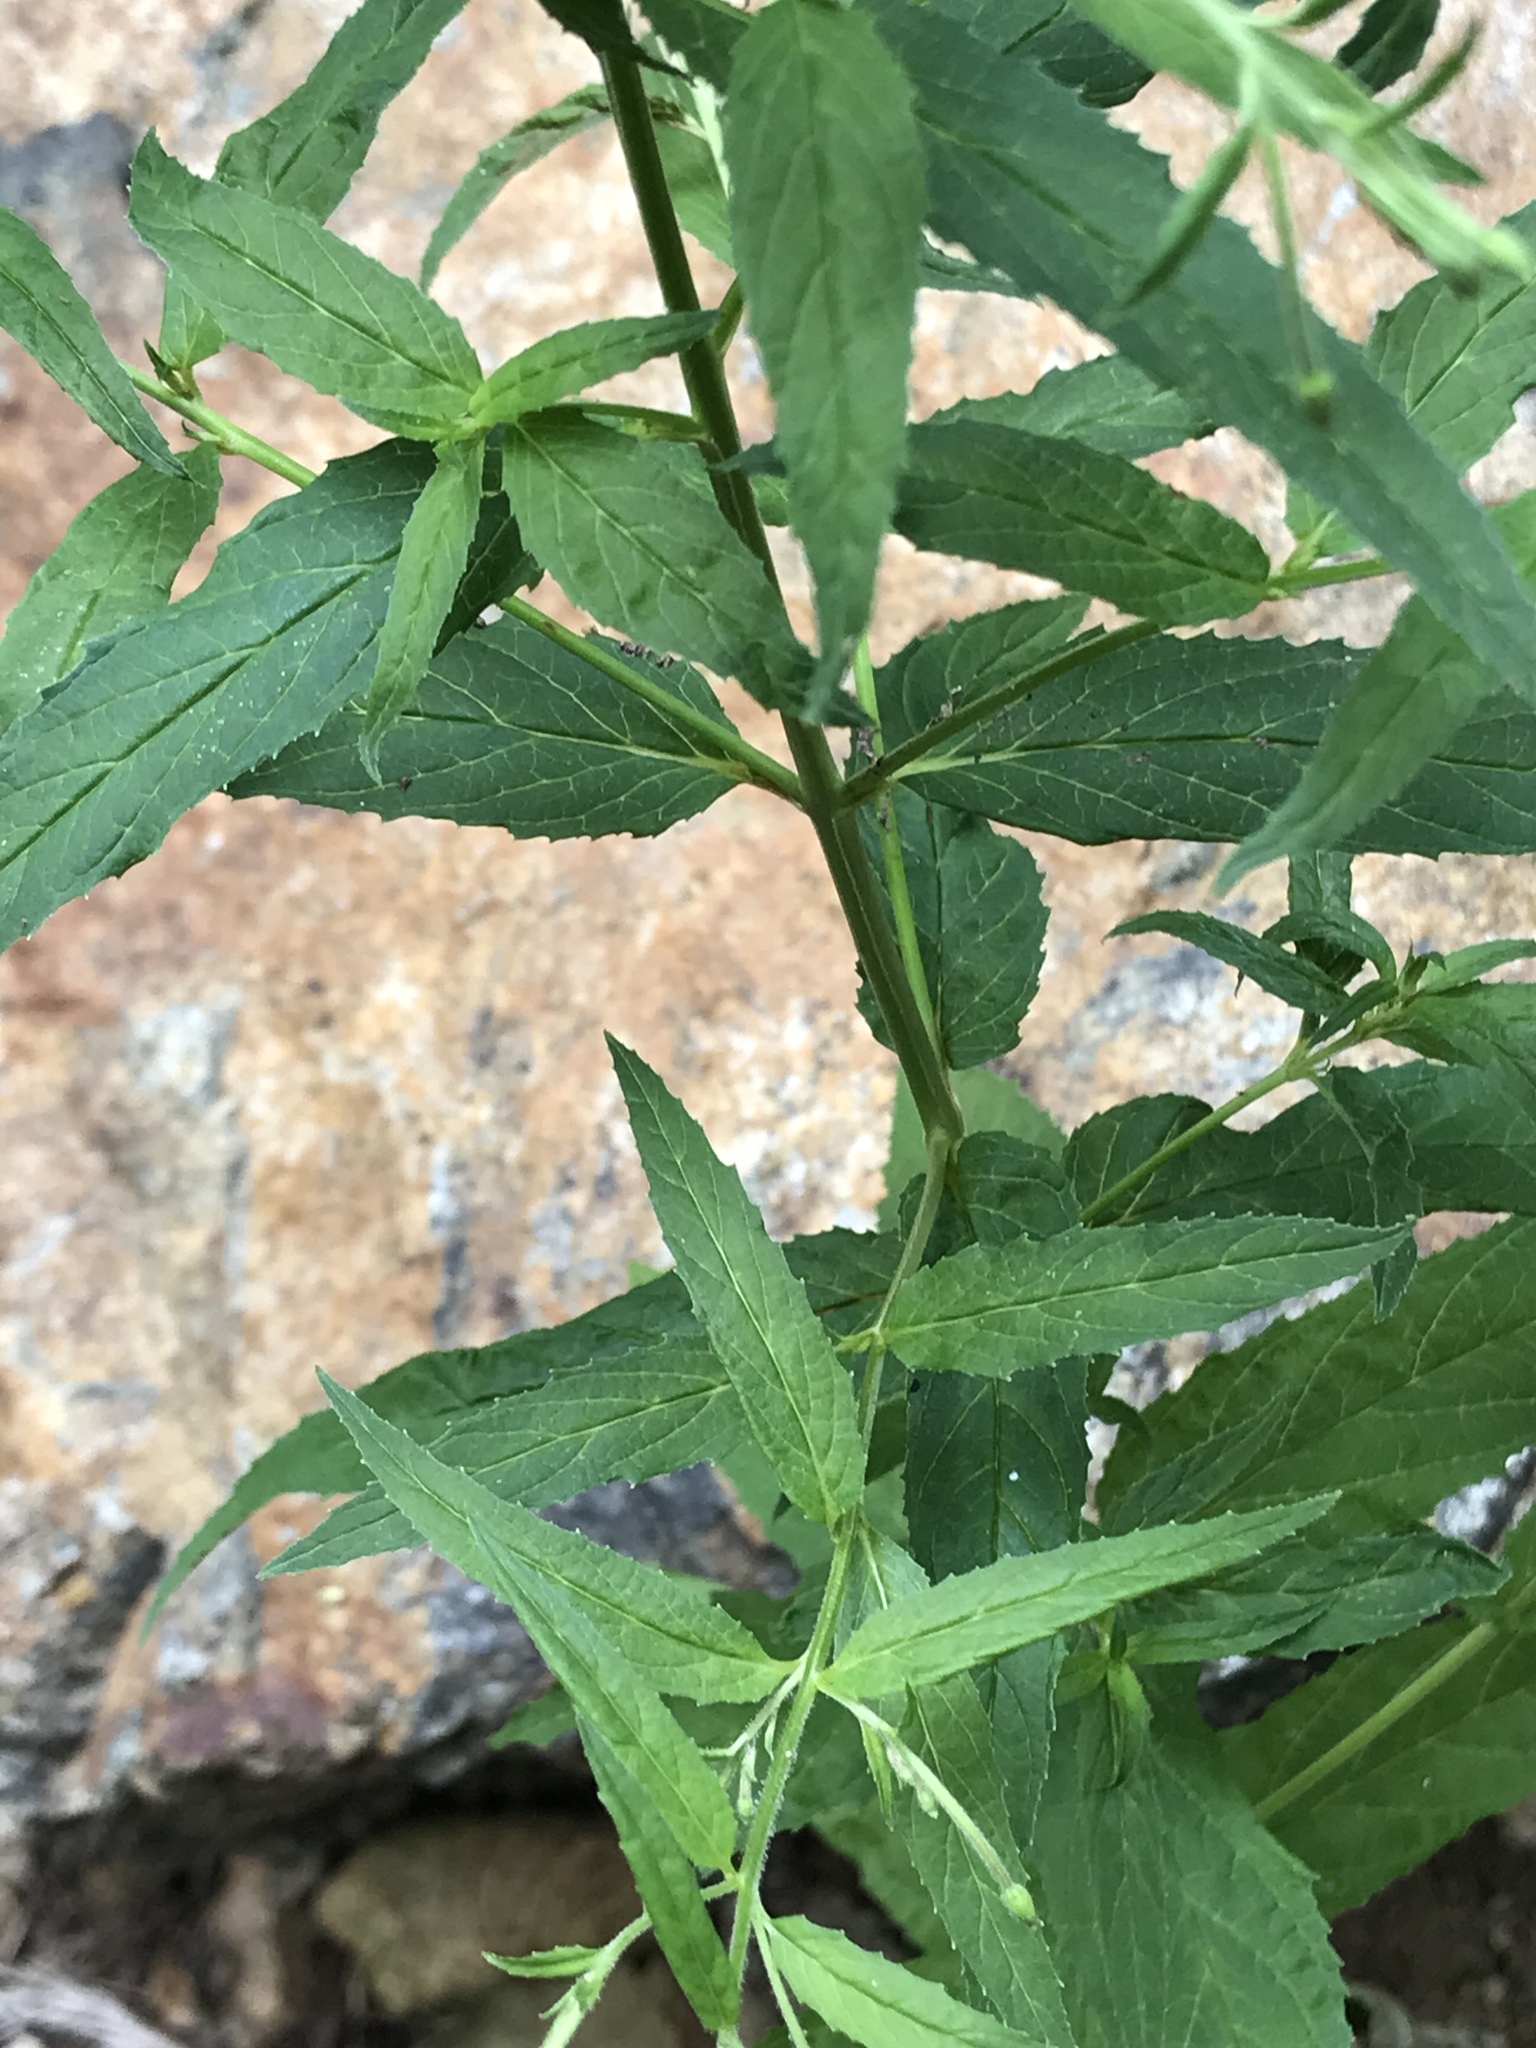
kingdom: Plantae
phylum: Tracheophyta
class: Magnoliopsida
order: Myrtales
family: Onagraceae
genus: Epilobium
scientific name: Epilobium coloratum
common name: Bronze willowherb
